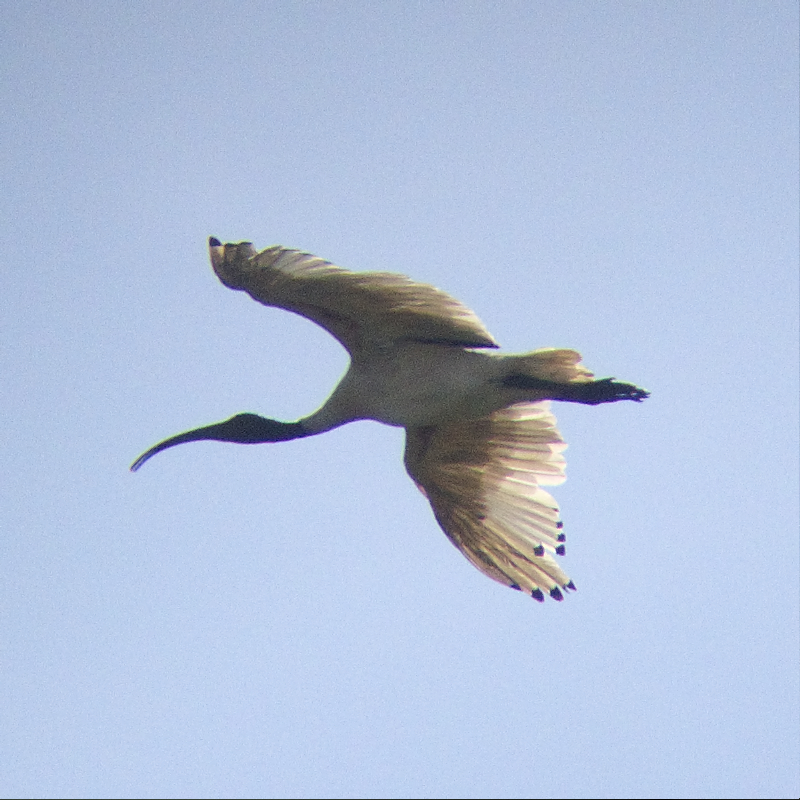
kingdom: Animalia
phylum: Chordata
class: Aves
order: Pelecaniformes
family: Threskiornithidae
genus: Threskiornis
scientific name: Threskiornis molucca
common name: Australian white ibis
